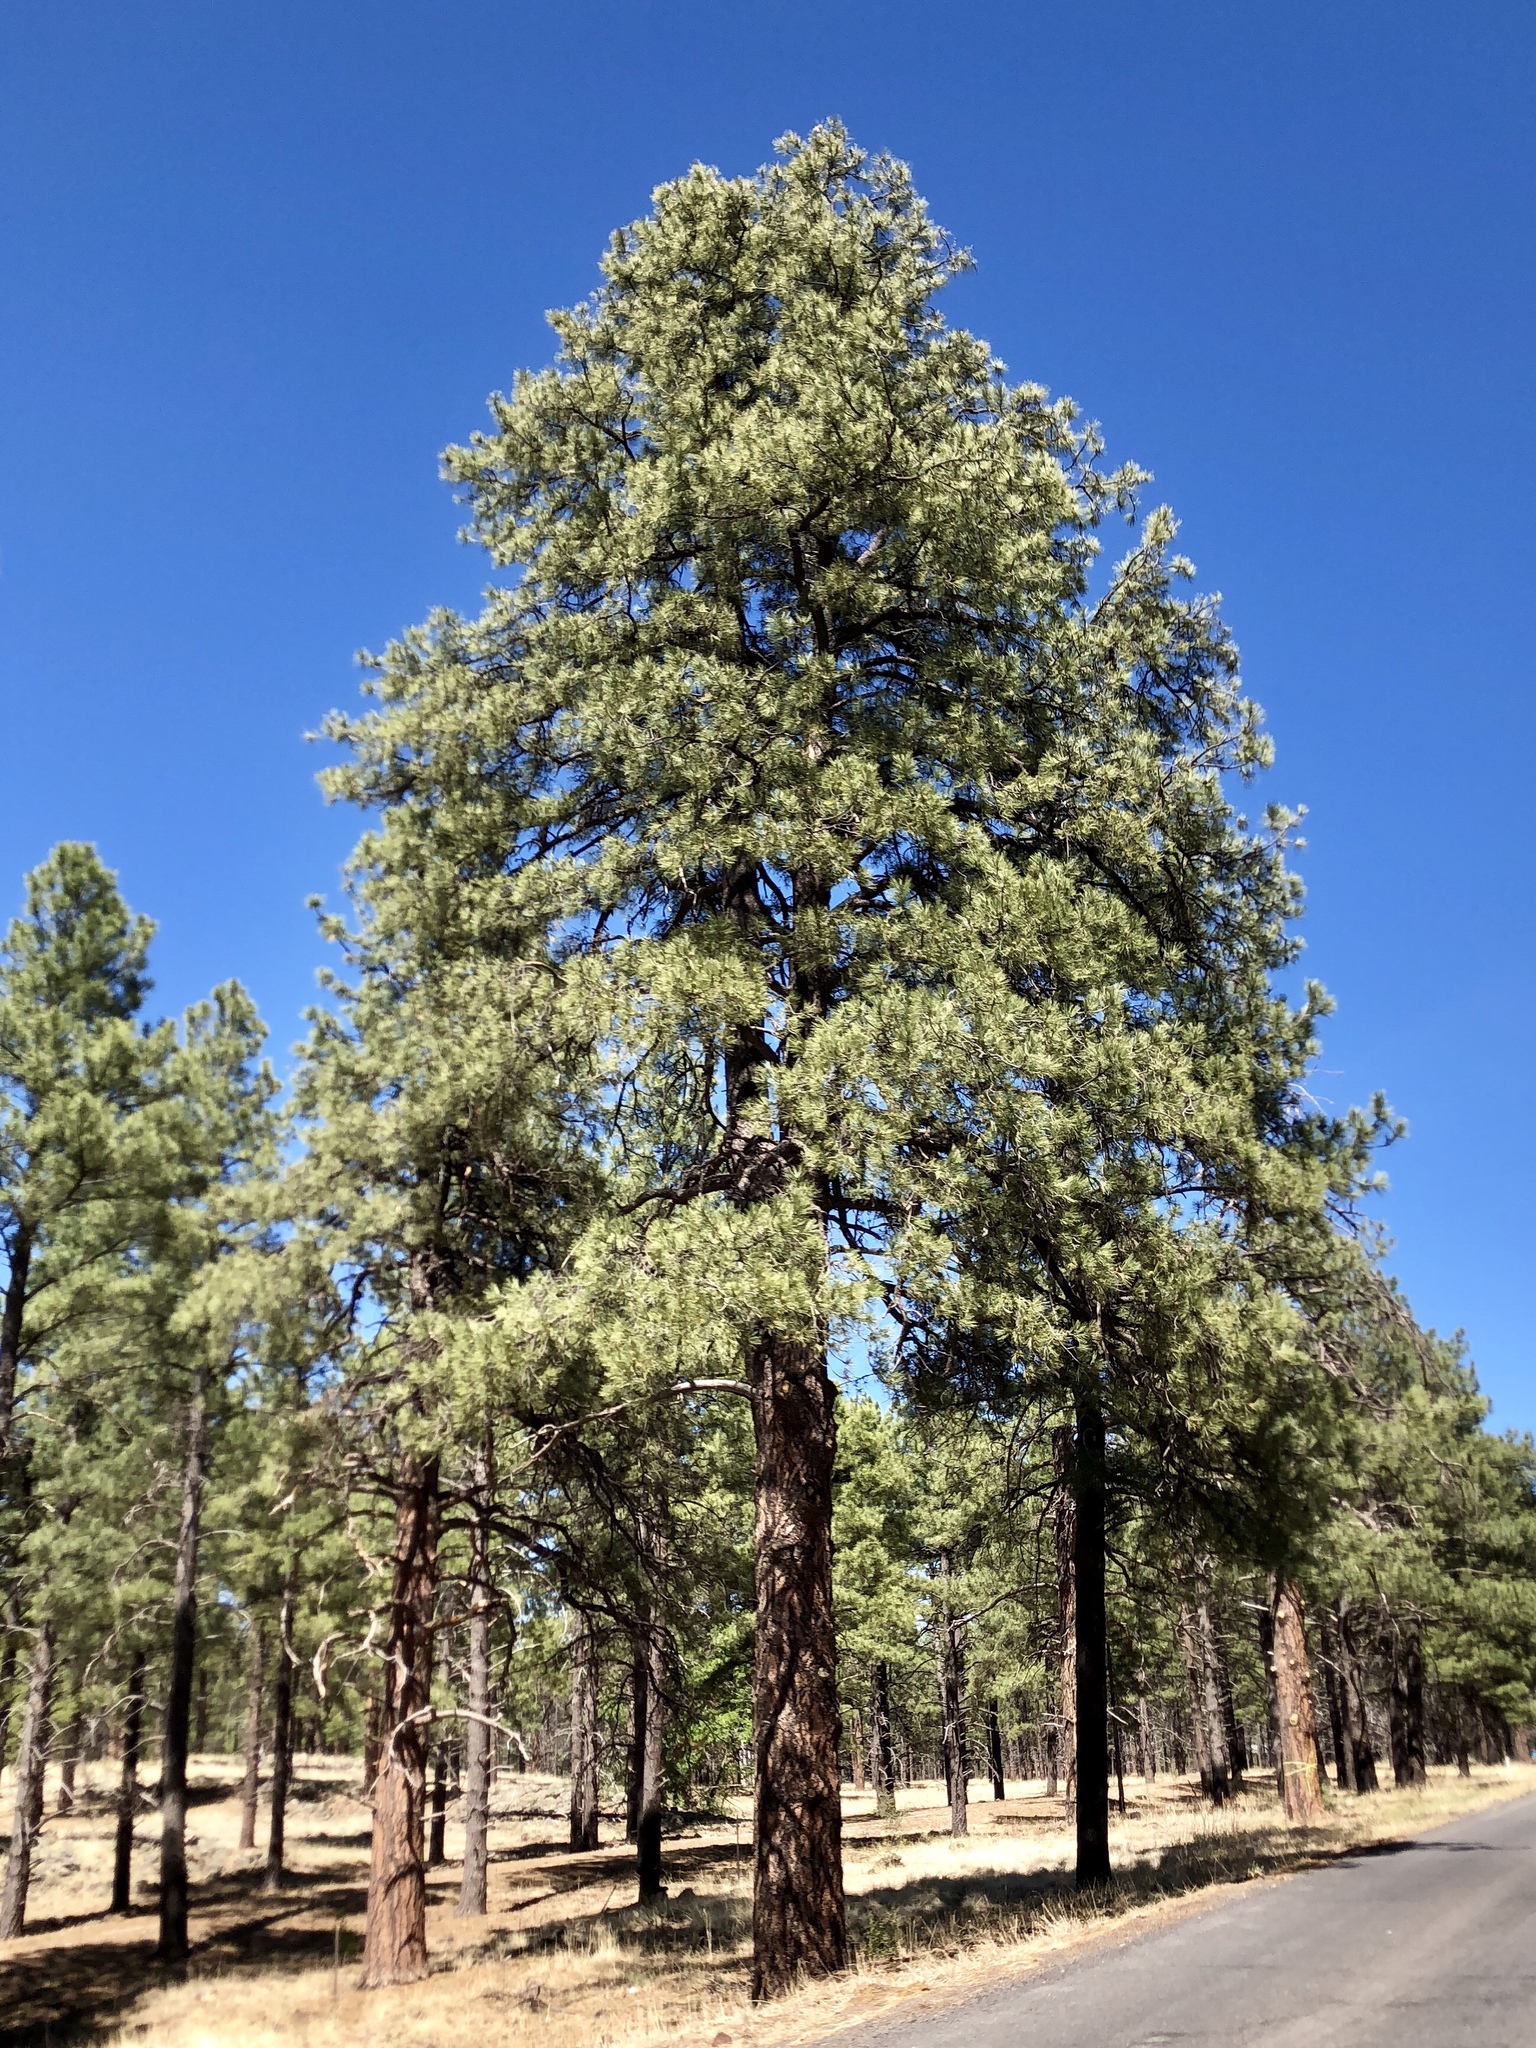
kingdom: Plantae
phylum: Tracheophyta
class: Pinopsida
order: Pinales
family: Pinaceae
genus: Pinus
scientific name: Pinus ponderosa
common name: Western yellow-pine
